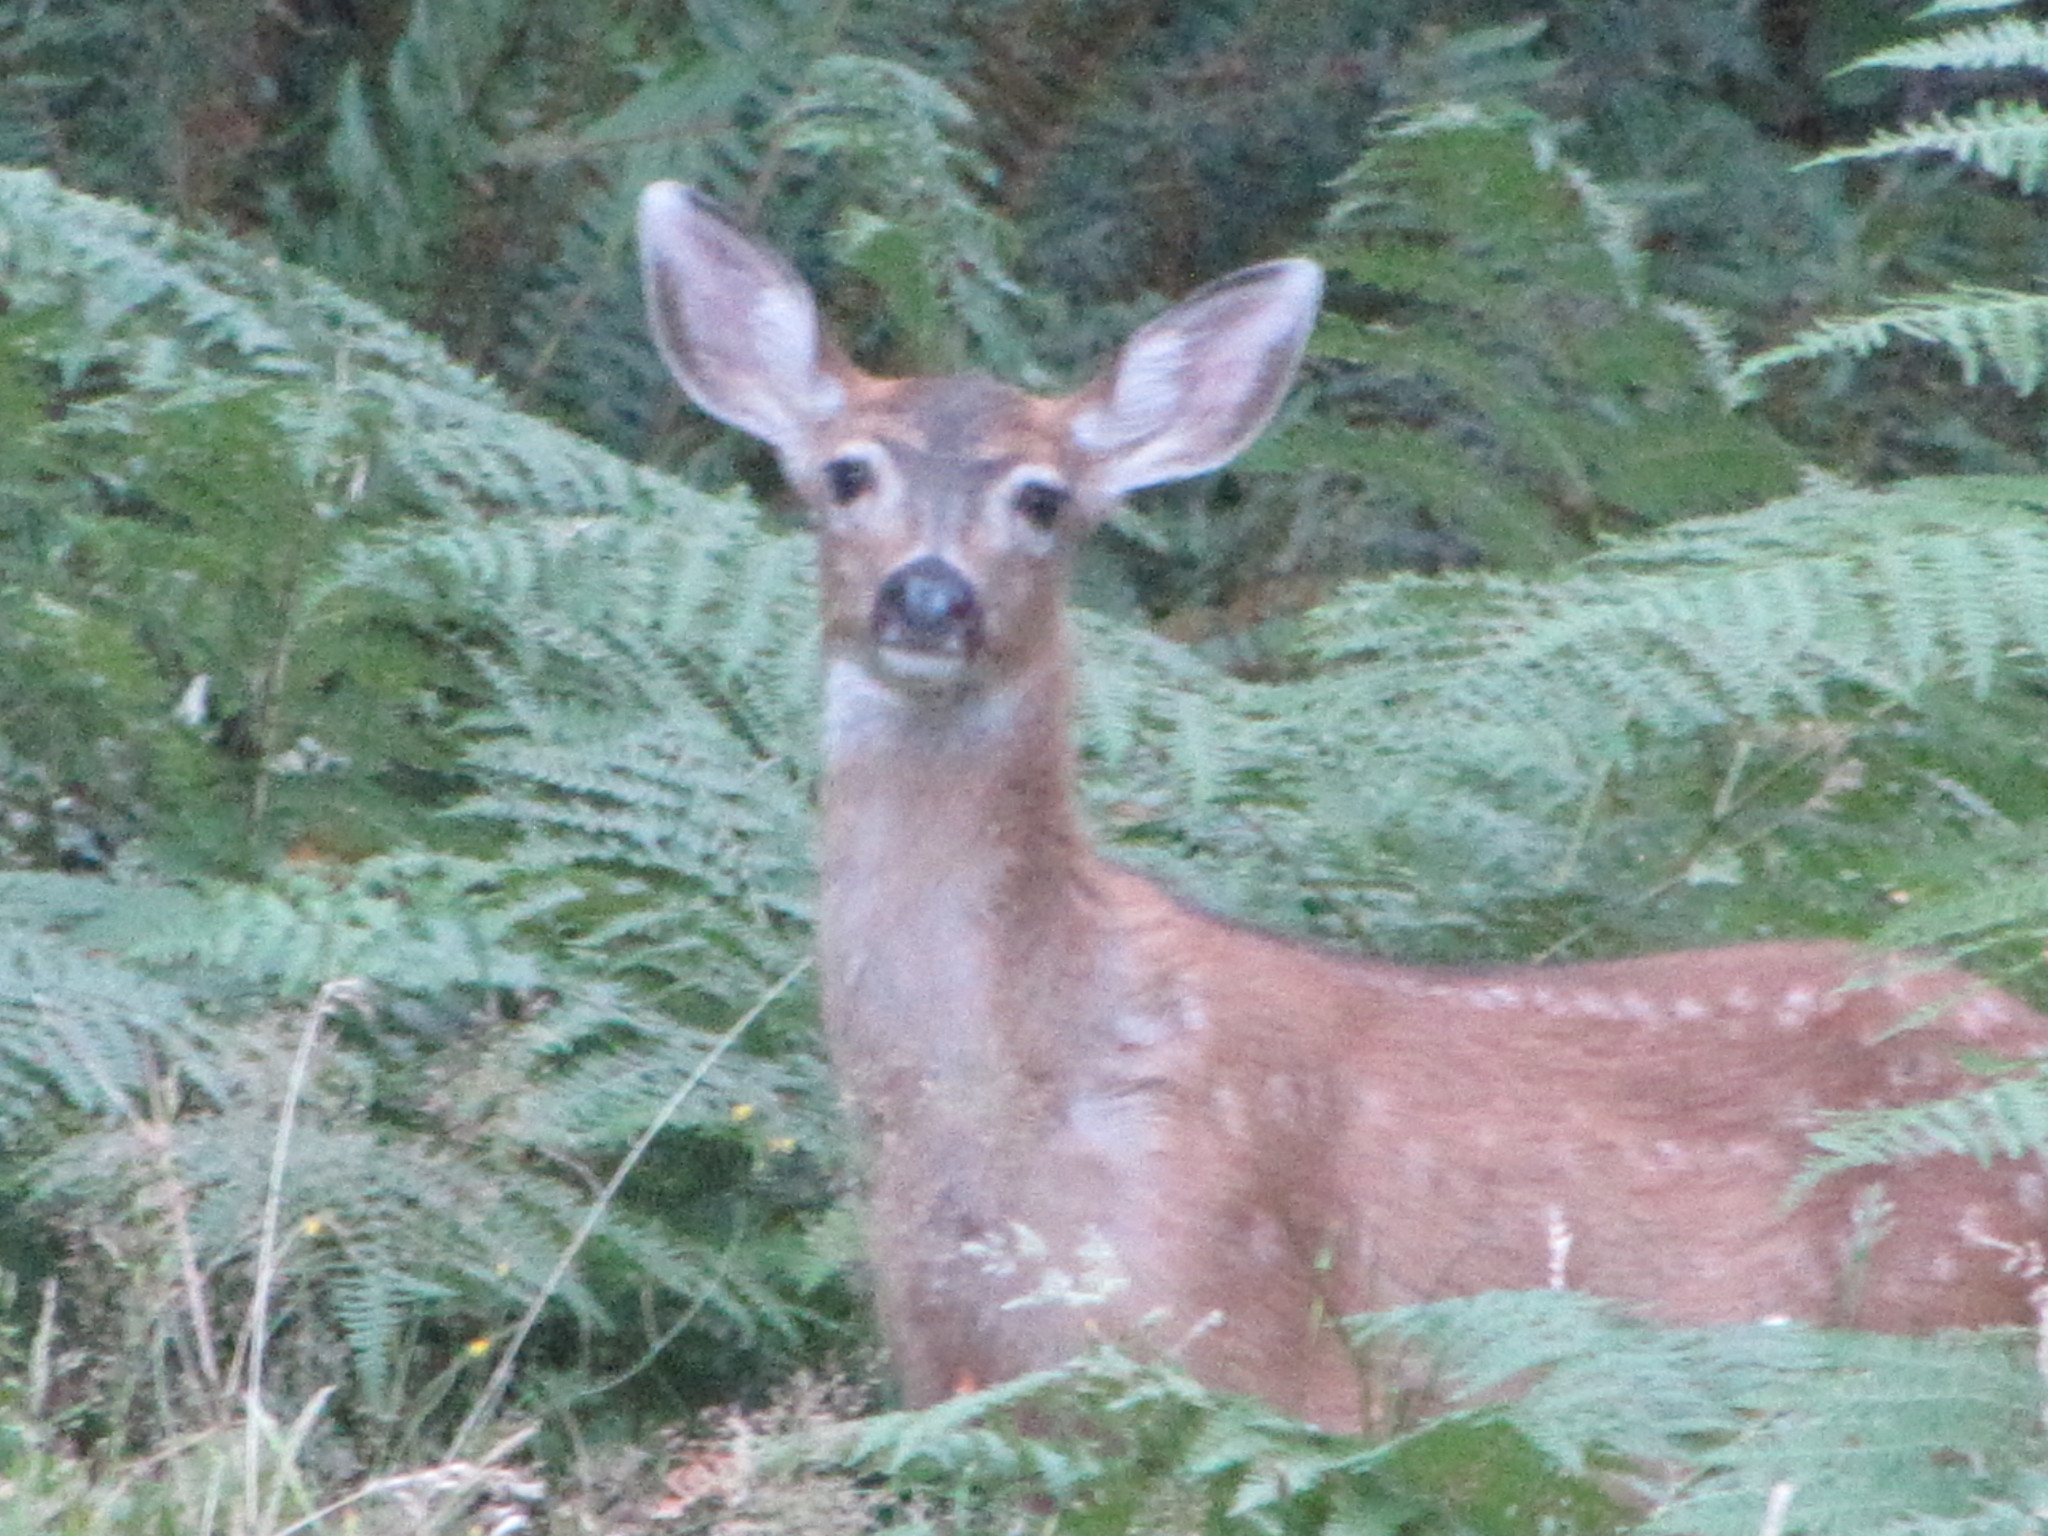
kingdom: Animalia
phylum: Chordata
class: Mammalia
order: Artiodactyla
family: Cervidae
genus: Odocoileus
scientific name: Odocoileus hemionus
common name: Mule deer
